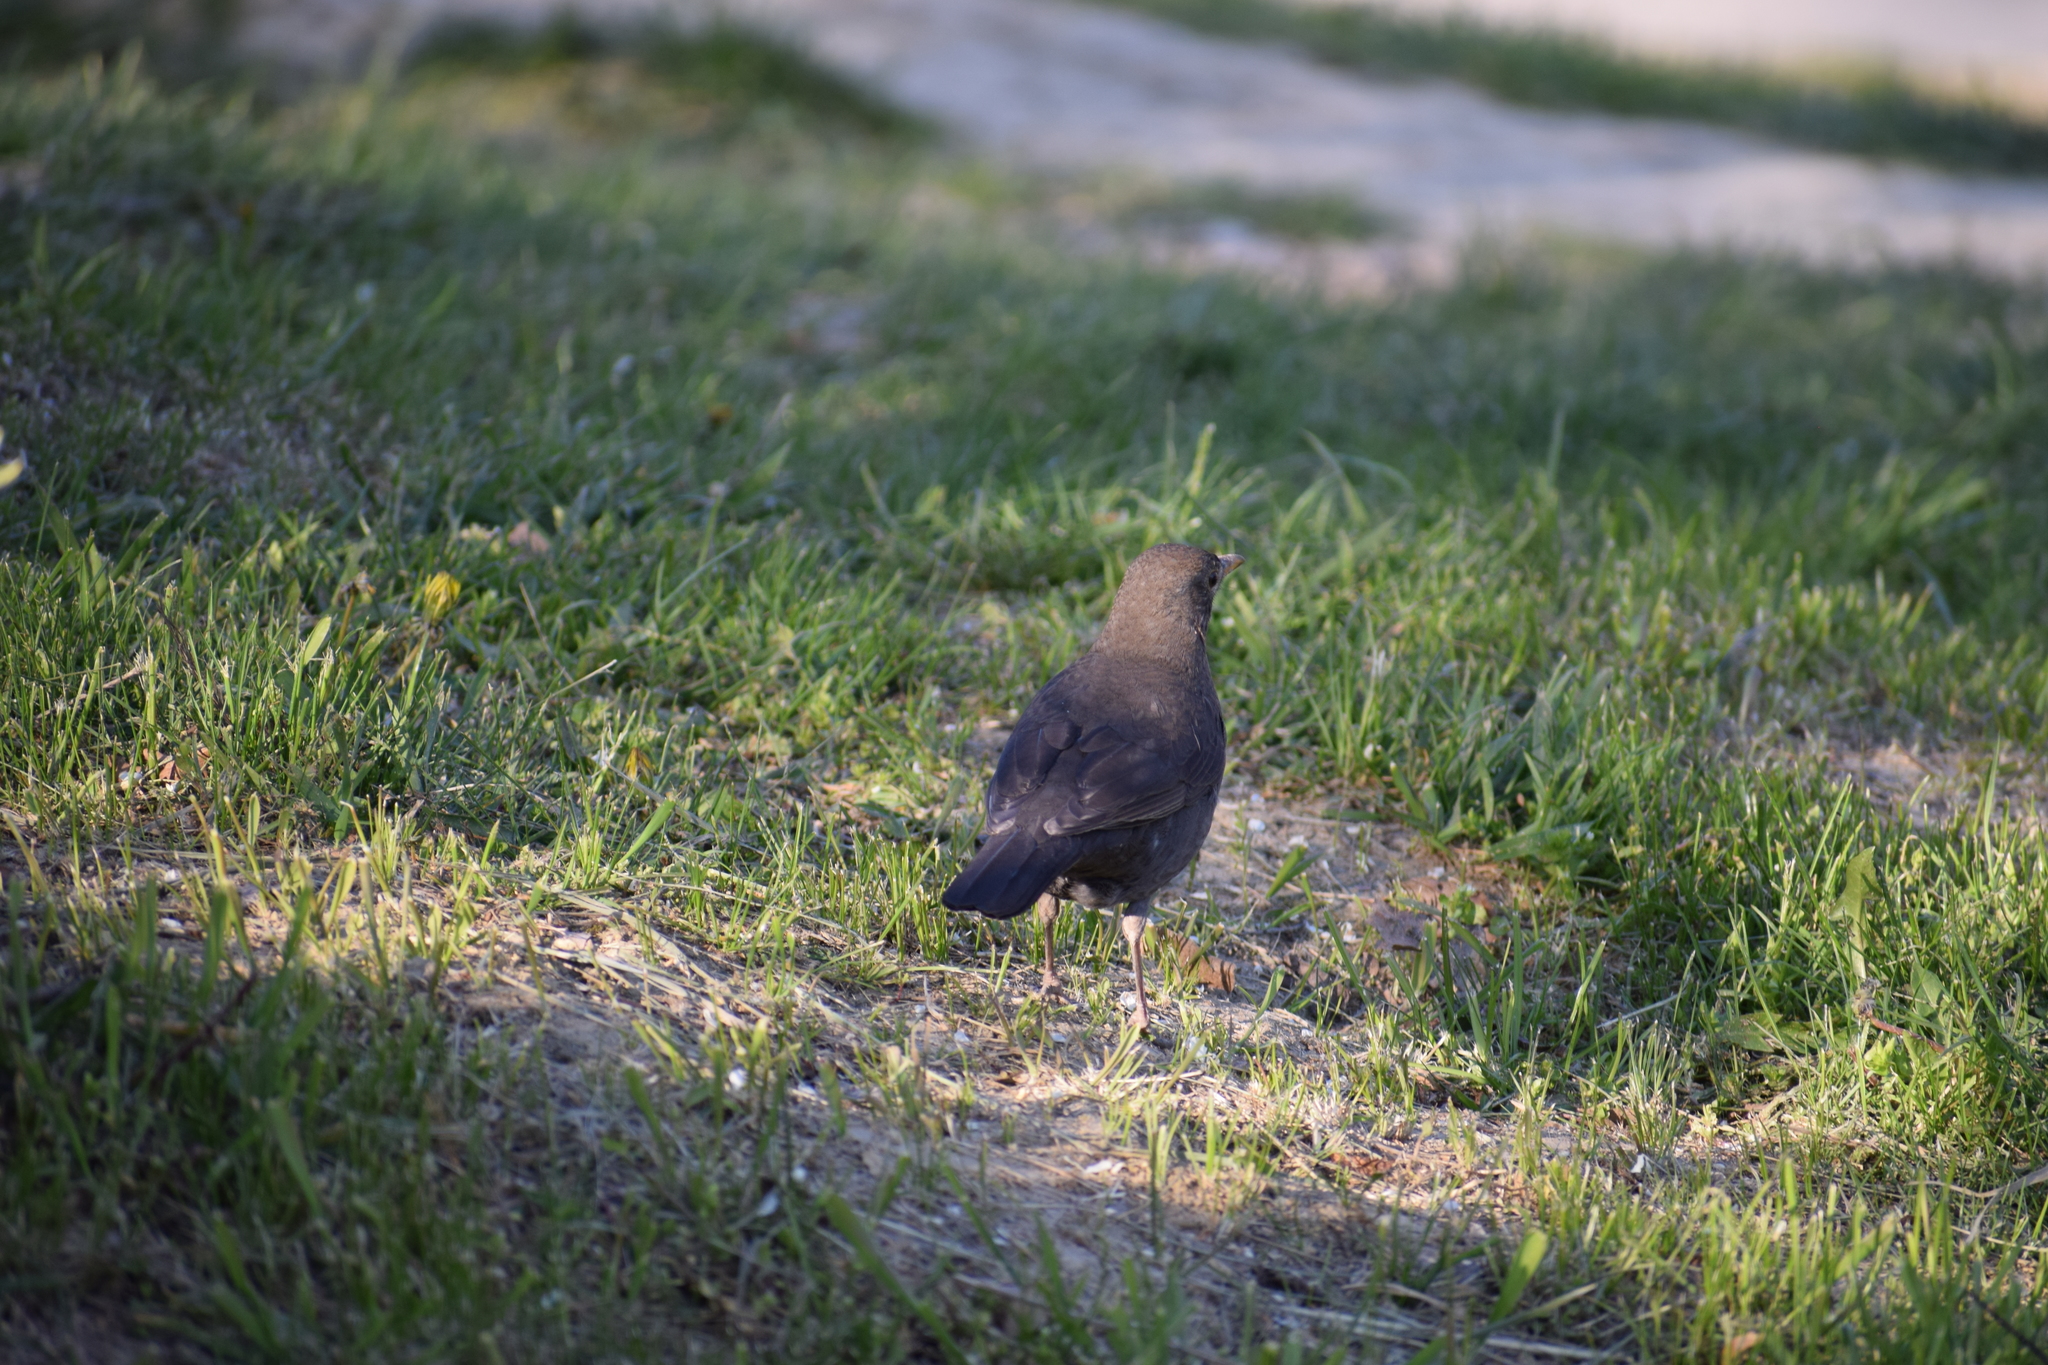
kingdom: Animalia
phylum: Chordata
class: Aves
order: Passeriformes
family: Turdidae
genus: Turdus
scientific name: Turdus merula
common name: Common blackbird
